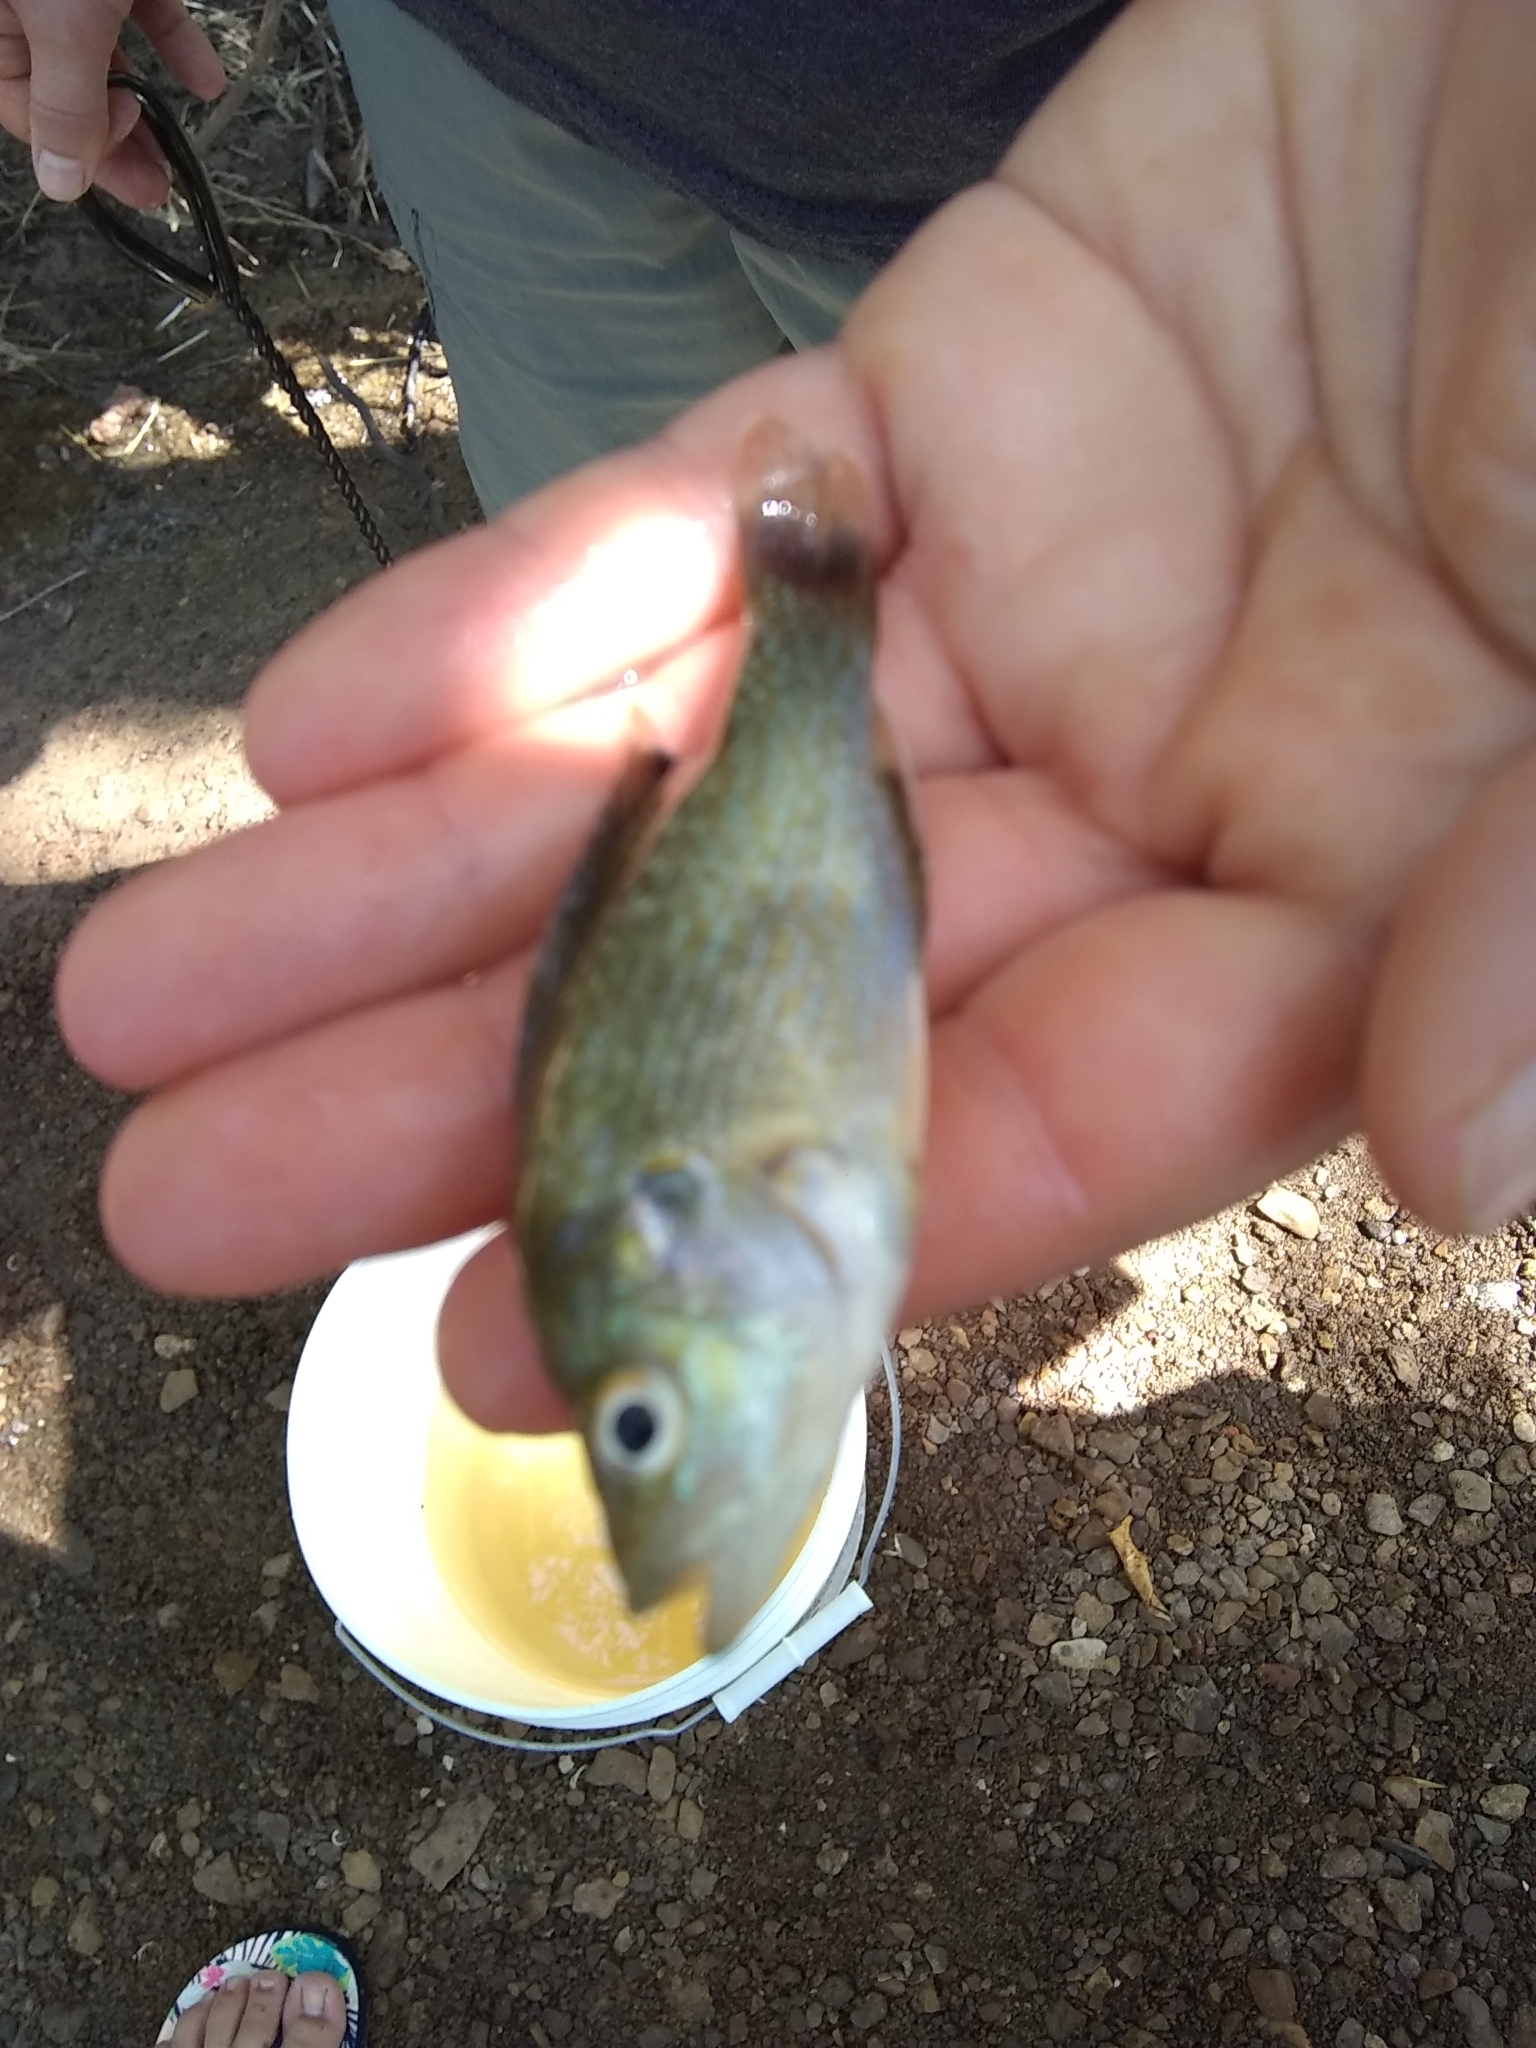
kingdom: Animalia
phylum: Chordata
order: Perciformes
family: Centrarchidae
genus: Lepomis
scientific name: Lepomis cyanellus
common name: Green sunfish
